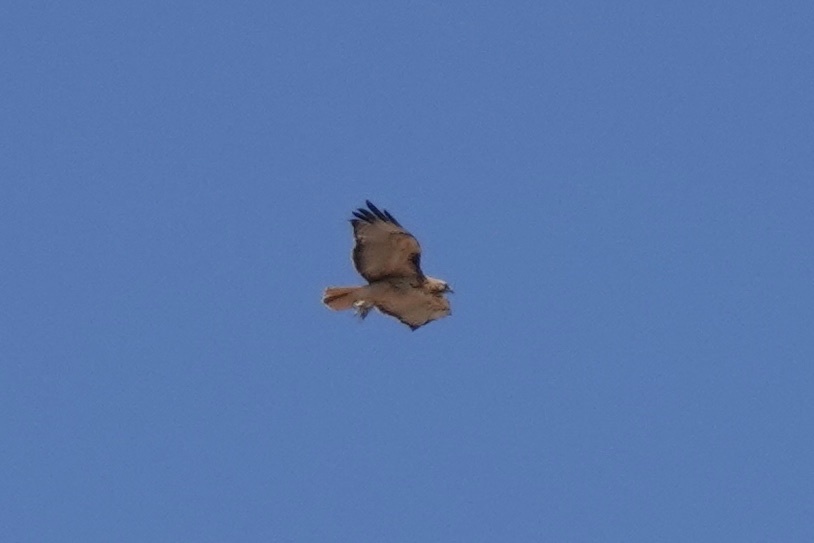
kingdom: Animalia
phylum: Chordata
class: Aves
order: Accipitriformes
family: Accipitridae
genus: Buteo
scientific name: Buteo jamaicensis
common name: Red-tailed hawk
